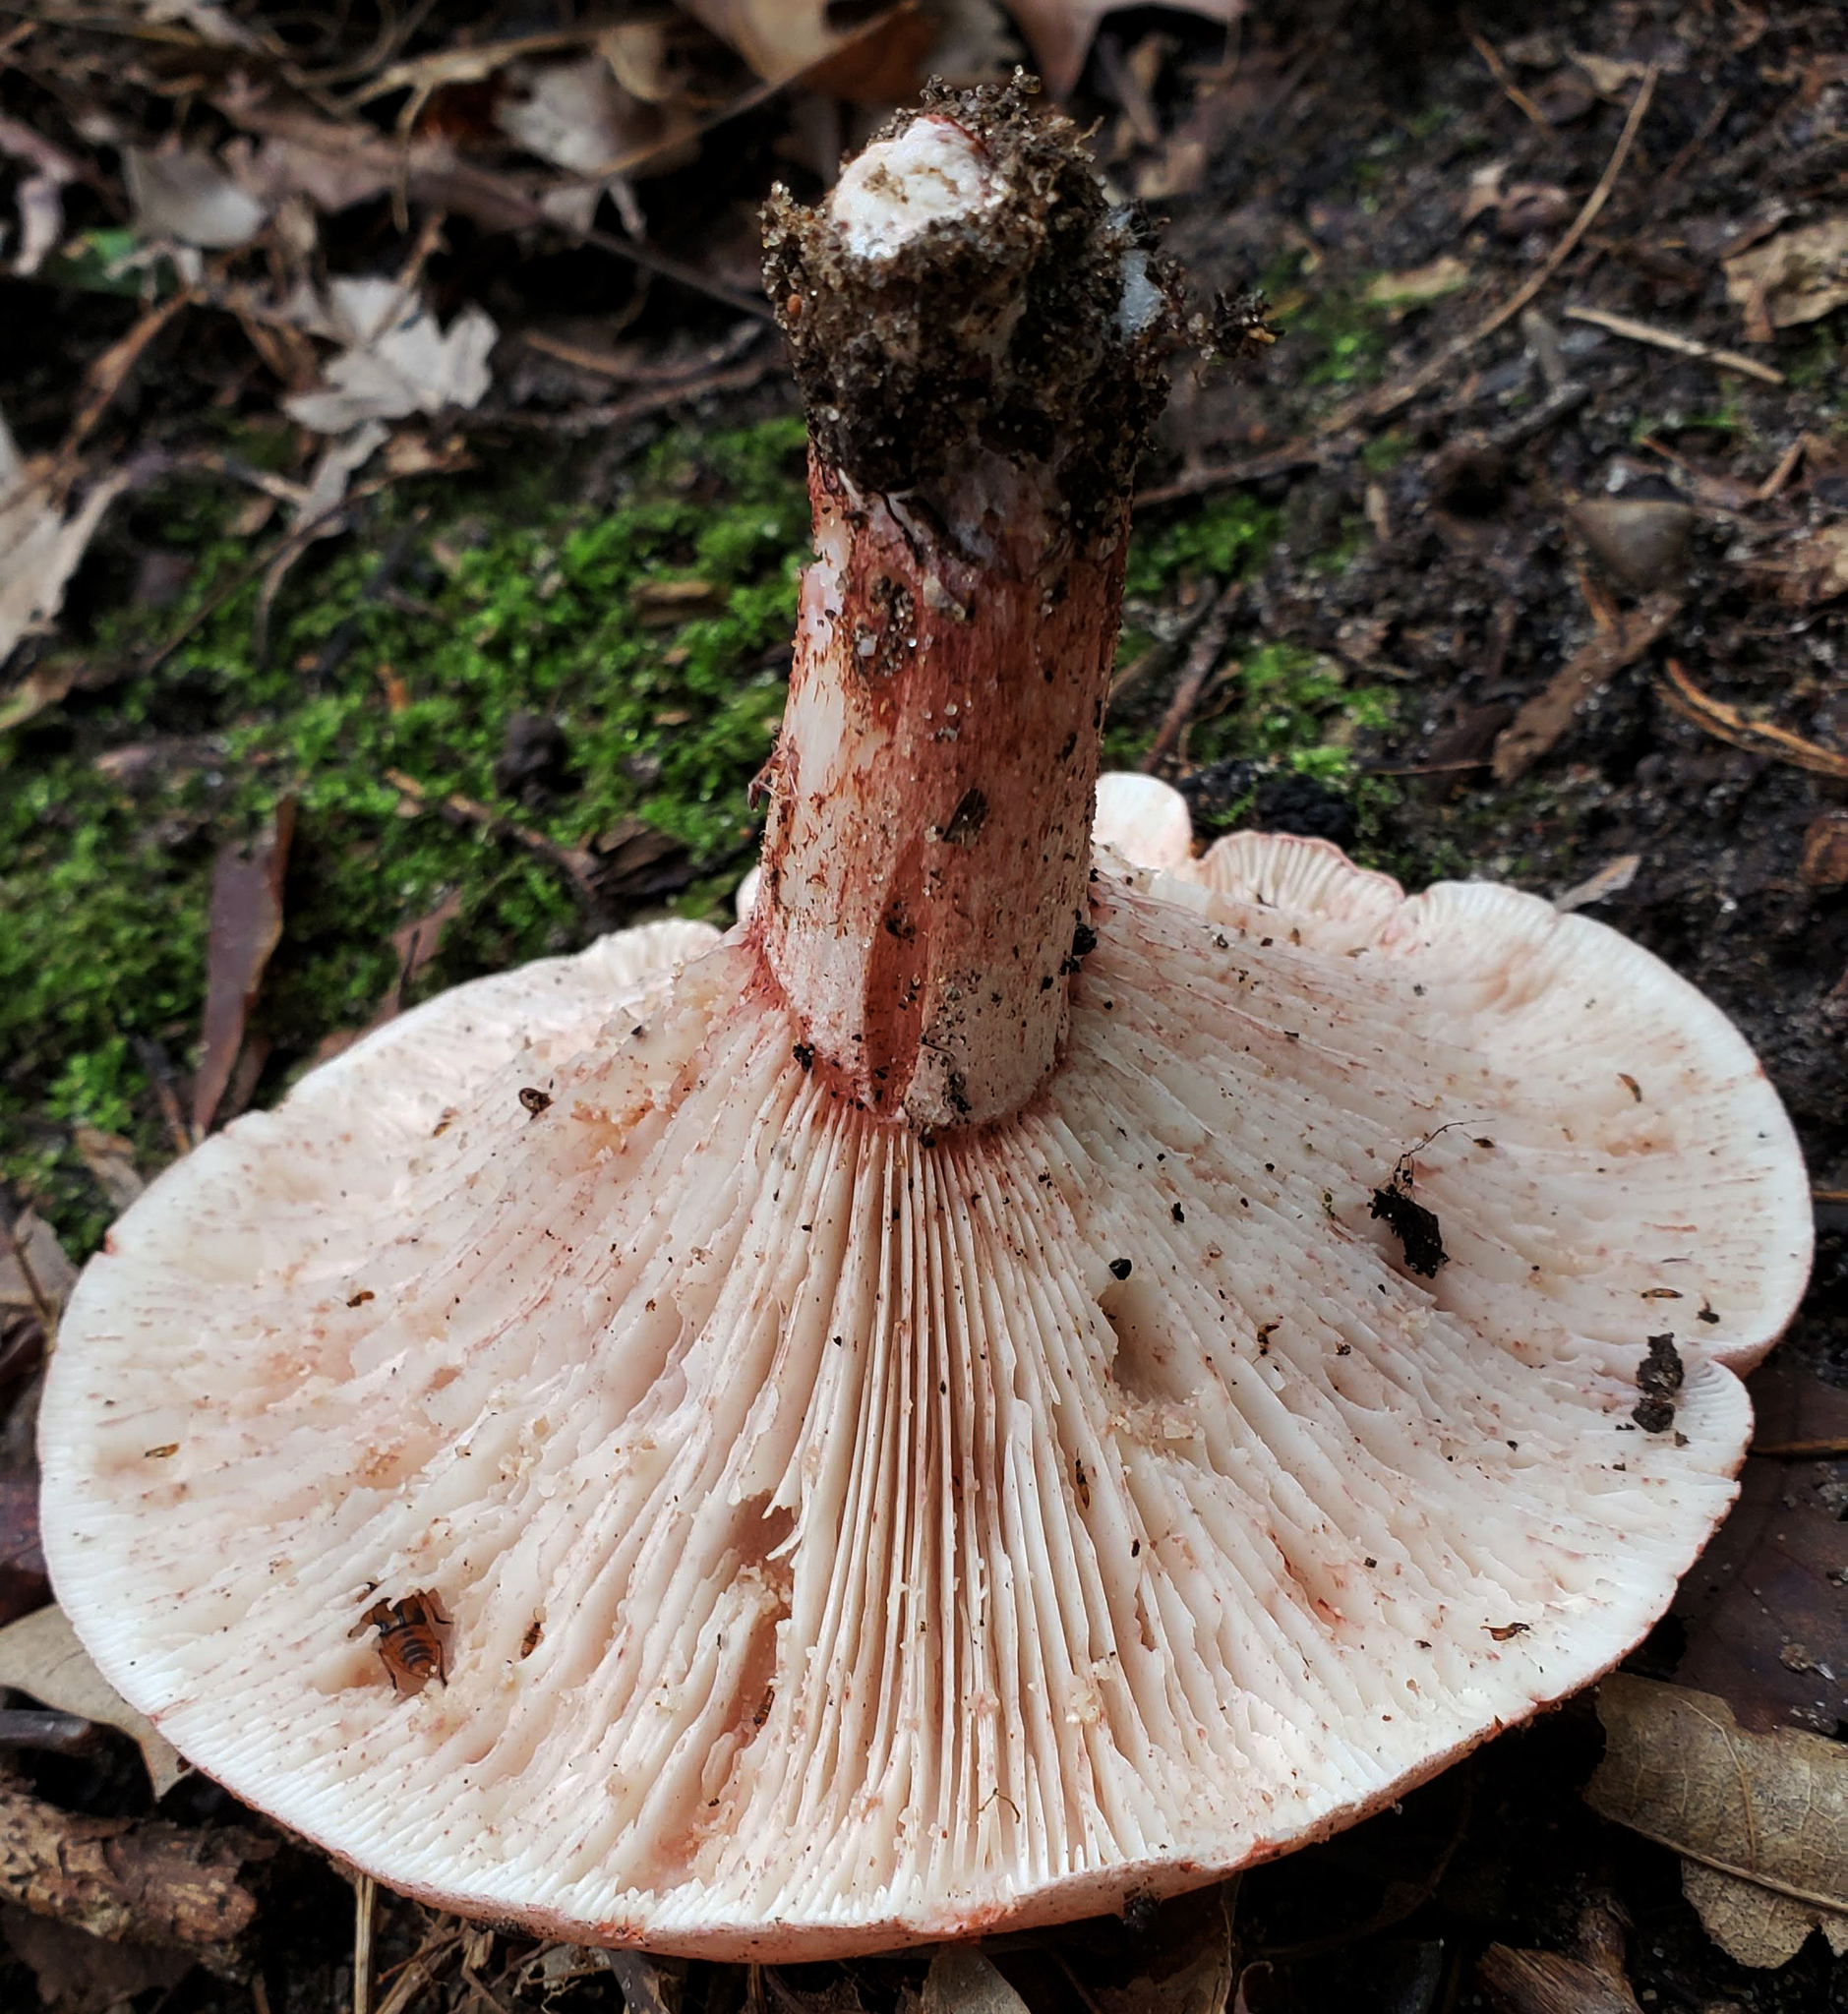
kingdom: Fungi
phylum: Basidiomycota
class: Agaricomycetes
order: Agaricales
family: Hygrophoraceae
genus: Hygrophorus
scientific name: Hygrophorus russula
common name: Pinkmottle woodwax
